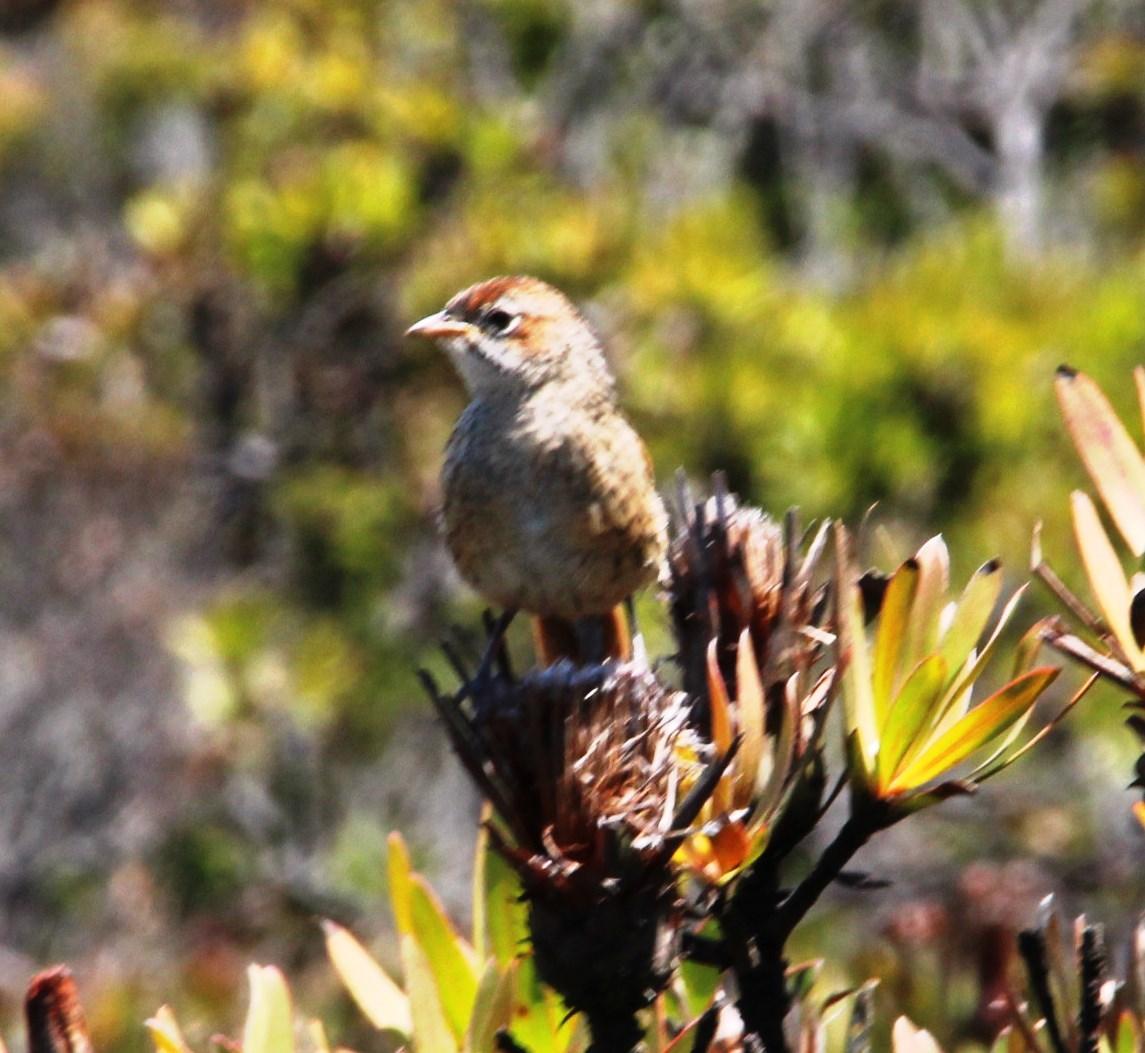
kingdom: Animalia
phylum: Chordata
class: Aves
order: Passeriformes
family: Macrosphenidae
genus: Sphenoeacus
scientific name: Sphenoeacus afer
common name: Cape grassbird
